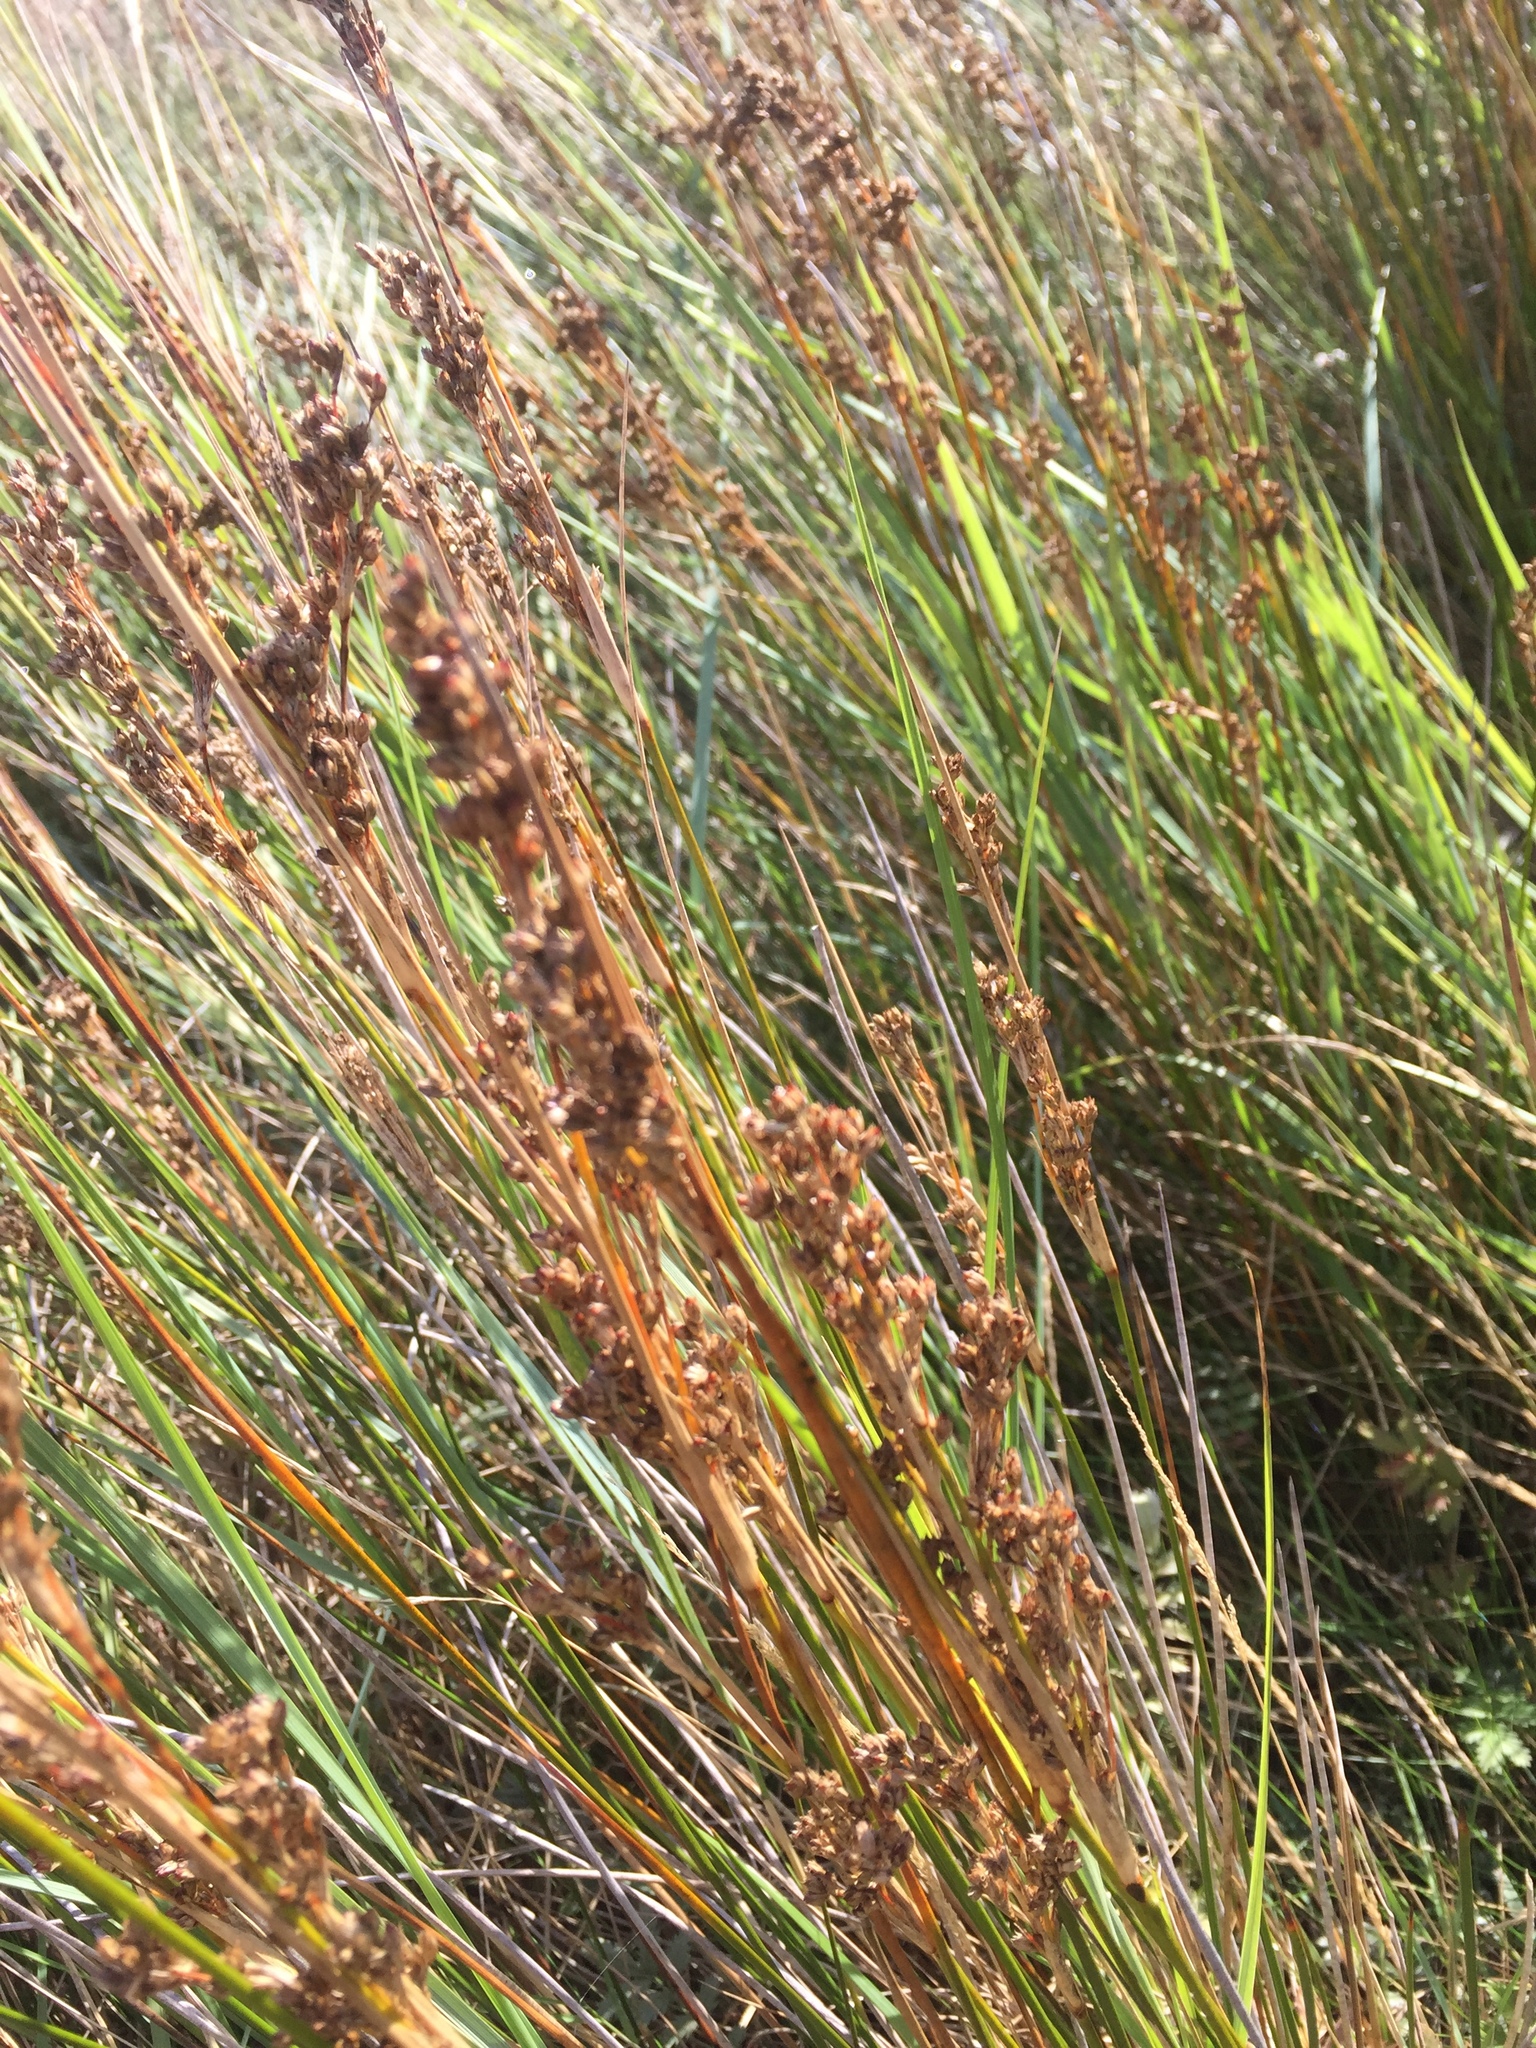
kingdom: Plantae
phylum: Tracheophyta
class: Liliopsida
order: Poales
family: Juncaceae
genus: Juncus
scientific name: Juncus maritimus
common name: Sea rush
